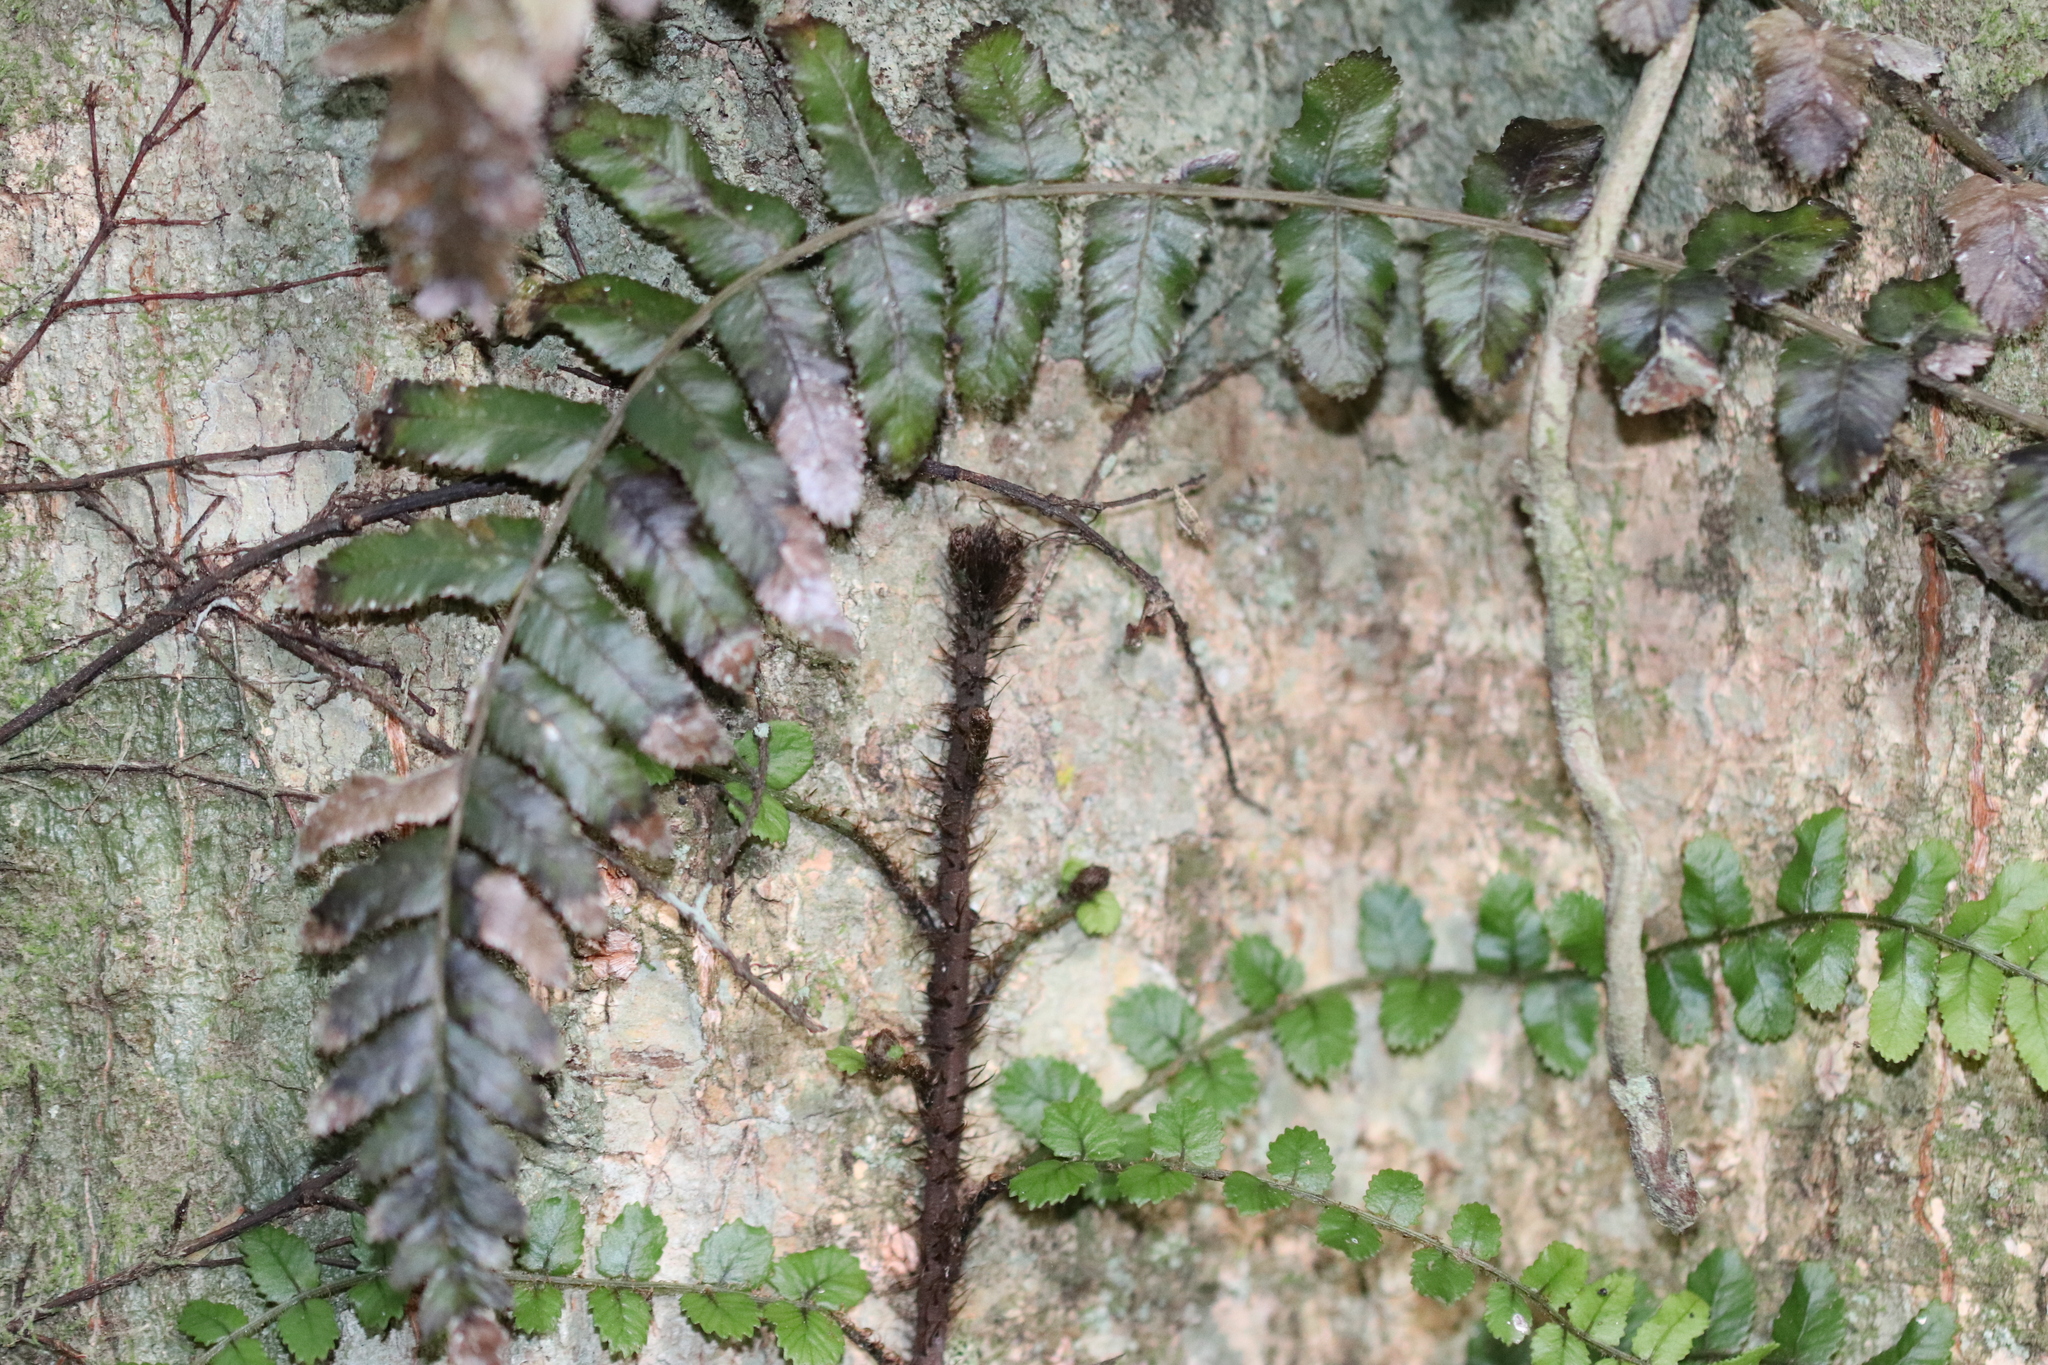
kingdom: Plantae
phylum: Tracheophyta
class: Polypodiopsida
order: Polypodiales
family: Blechnaceae
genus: Icarus
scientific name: Icarus filiformis
